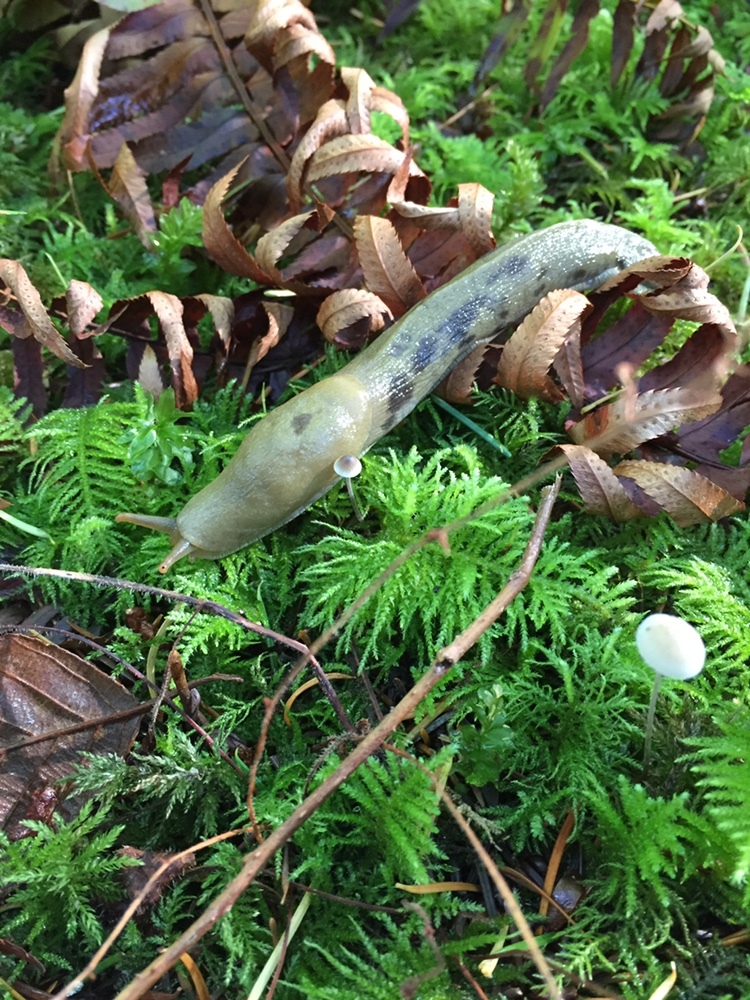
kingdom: Animalia
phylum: Mollusca
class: Gastropoda
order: Stylommatophora
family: Ariolimacidae
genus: Ariolimax
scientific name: Ariolimax columbianus
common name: Pacific banana slug
